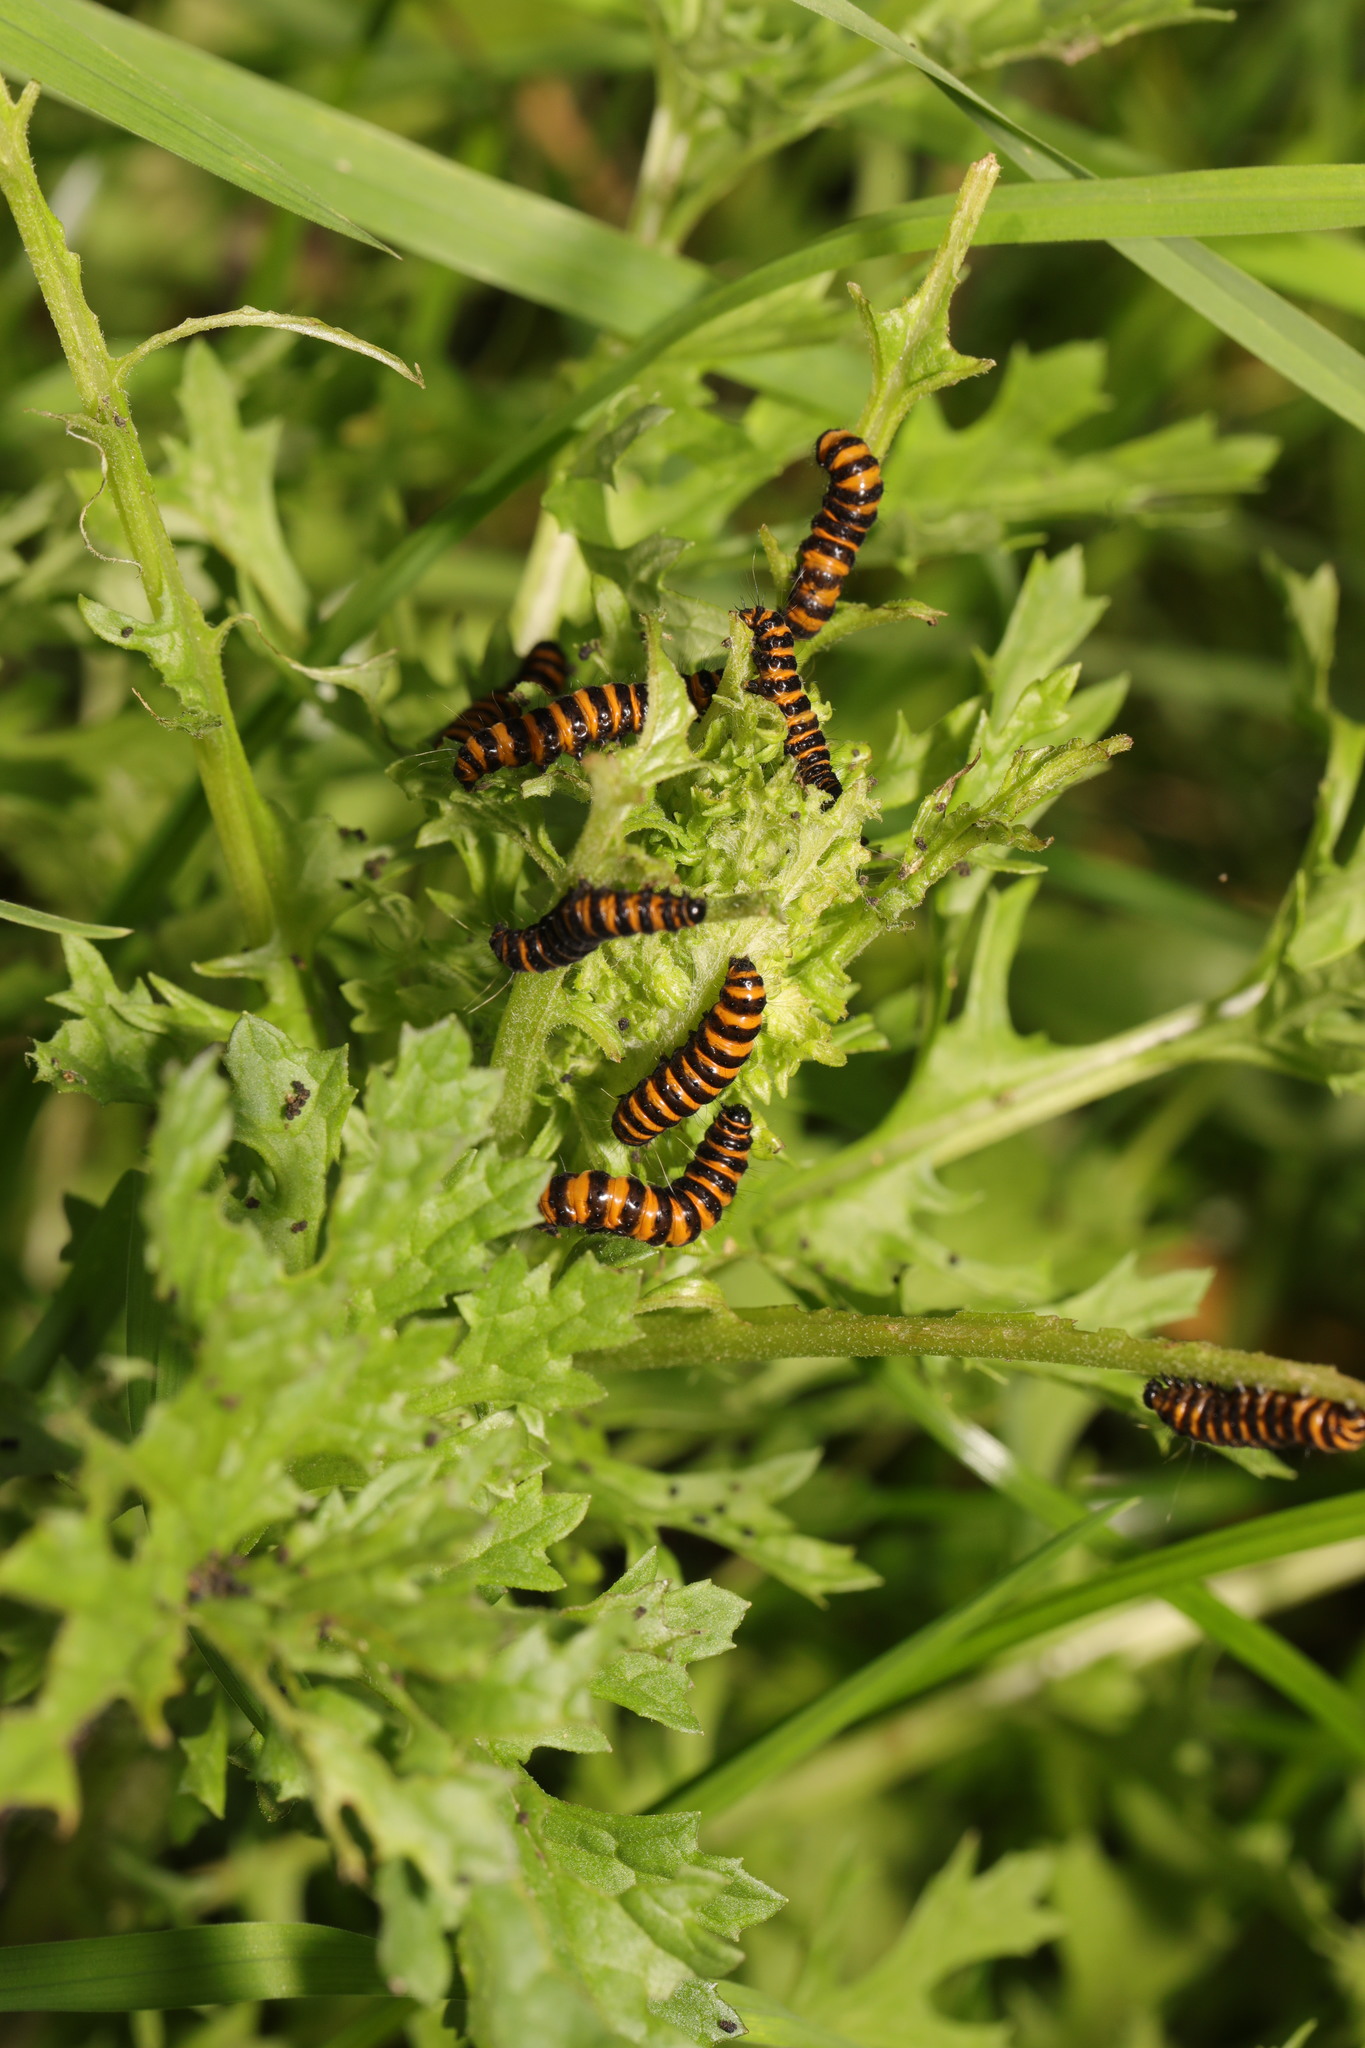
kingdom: Animalia
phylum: Arthropoda
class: Insecta
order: Lepidoptera
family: Erebidae
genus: Tyria
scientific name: Tyria jacobaeae
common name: Cinnabar
